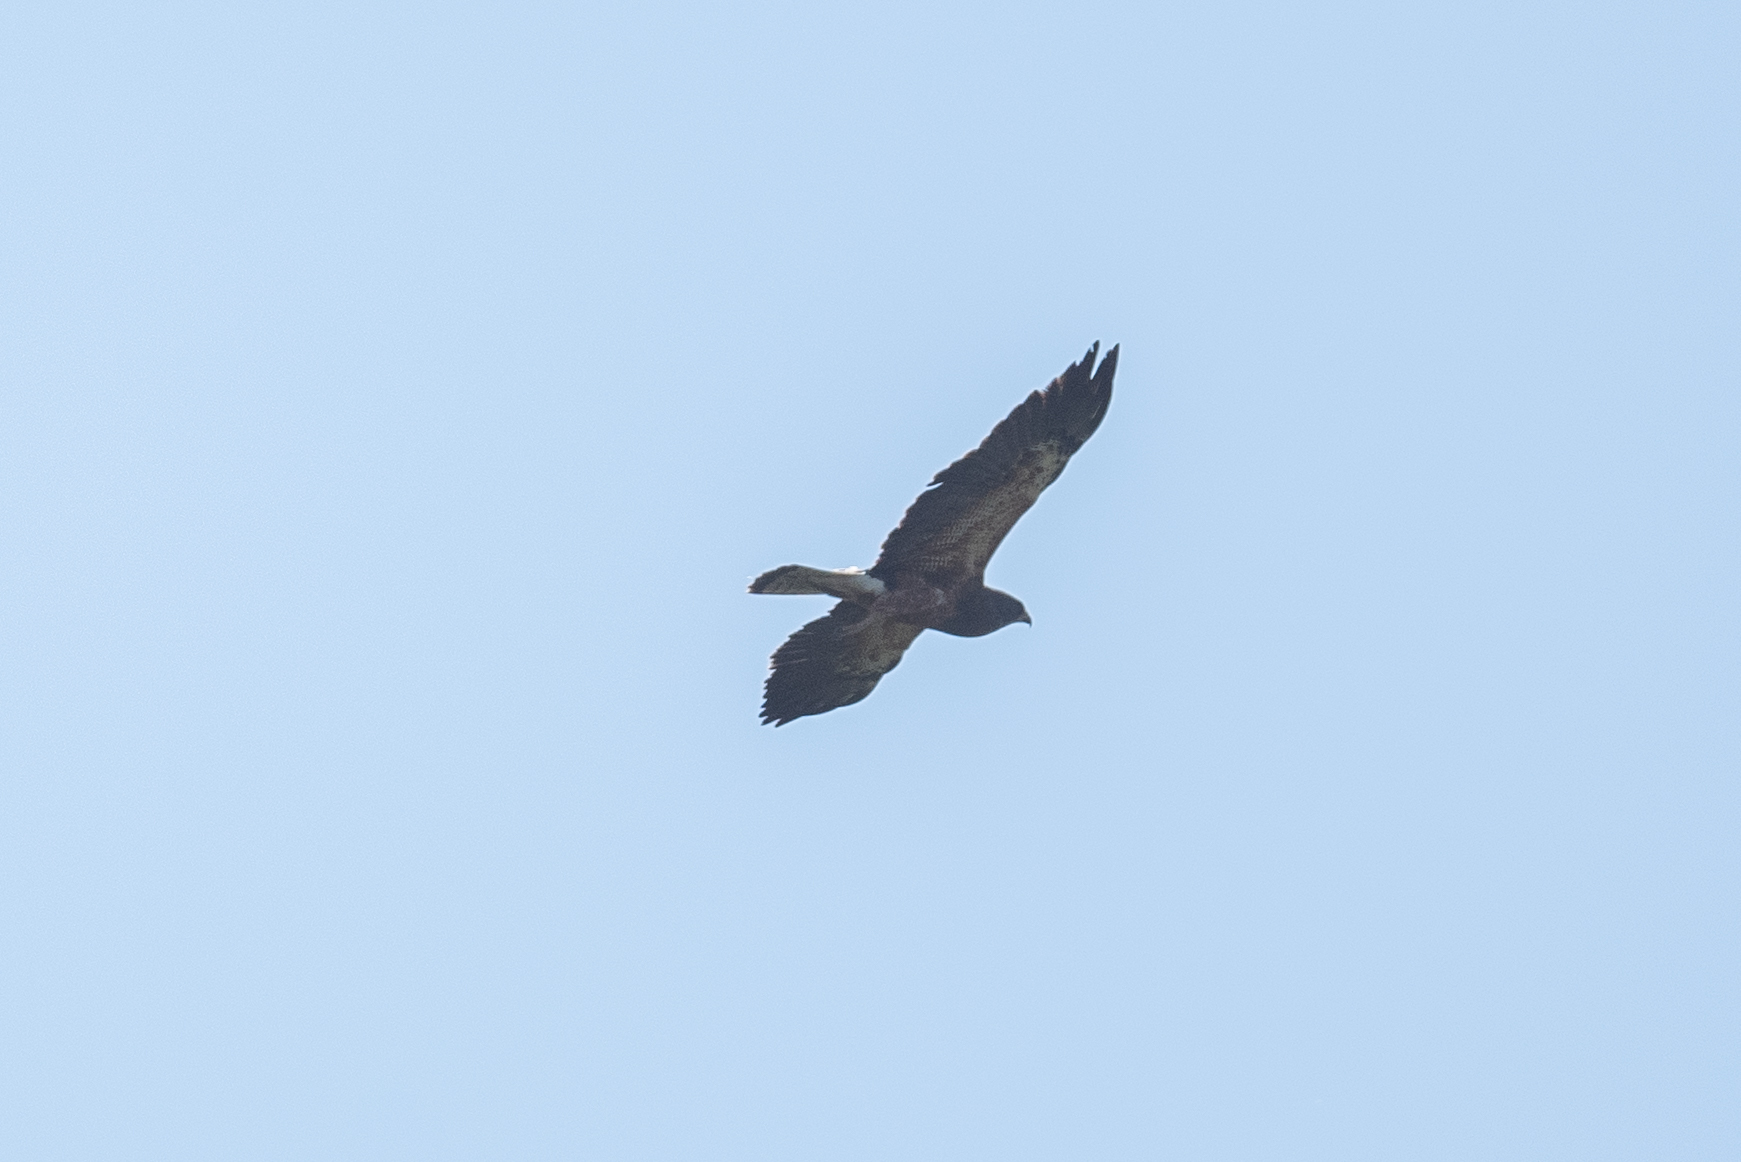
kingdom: Animalia
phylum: Chordata
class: Aves
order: Accipitriformes
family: Accipitridae
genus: Buteo
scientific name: Buteo swainsoni
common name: Swainson's hawk
